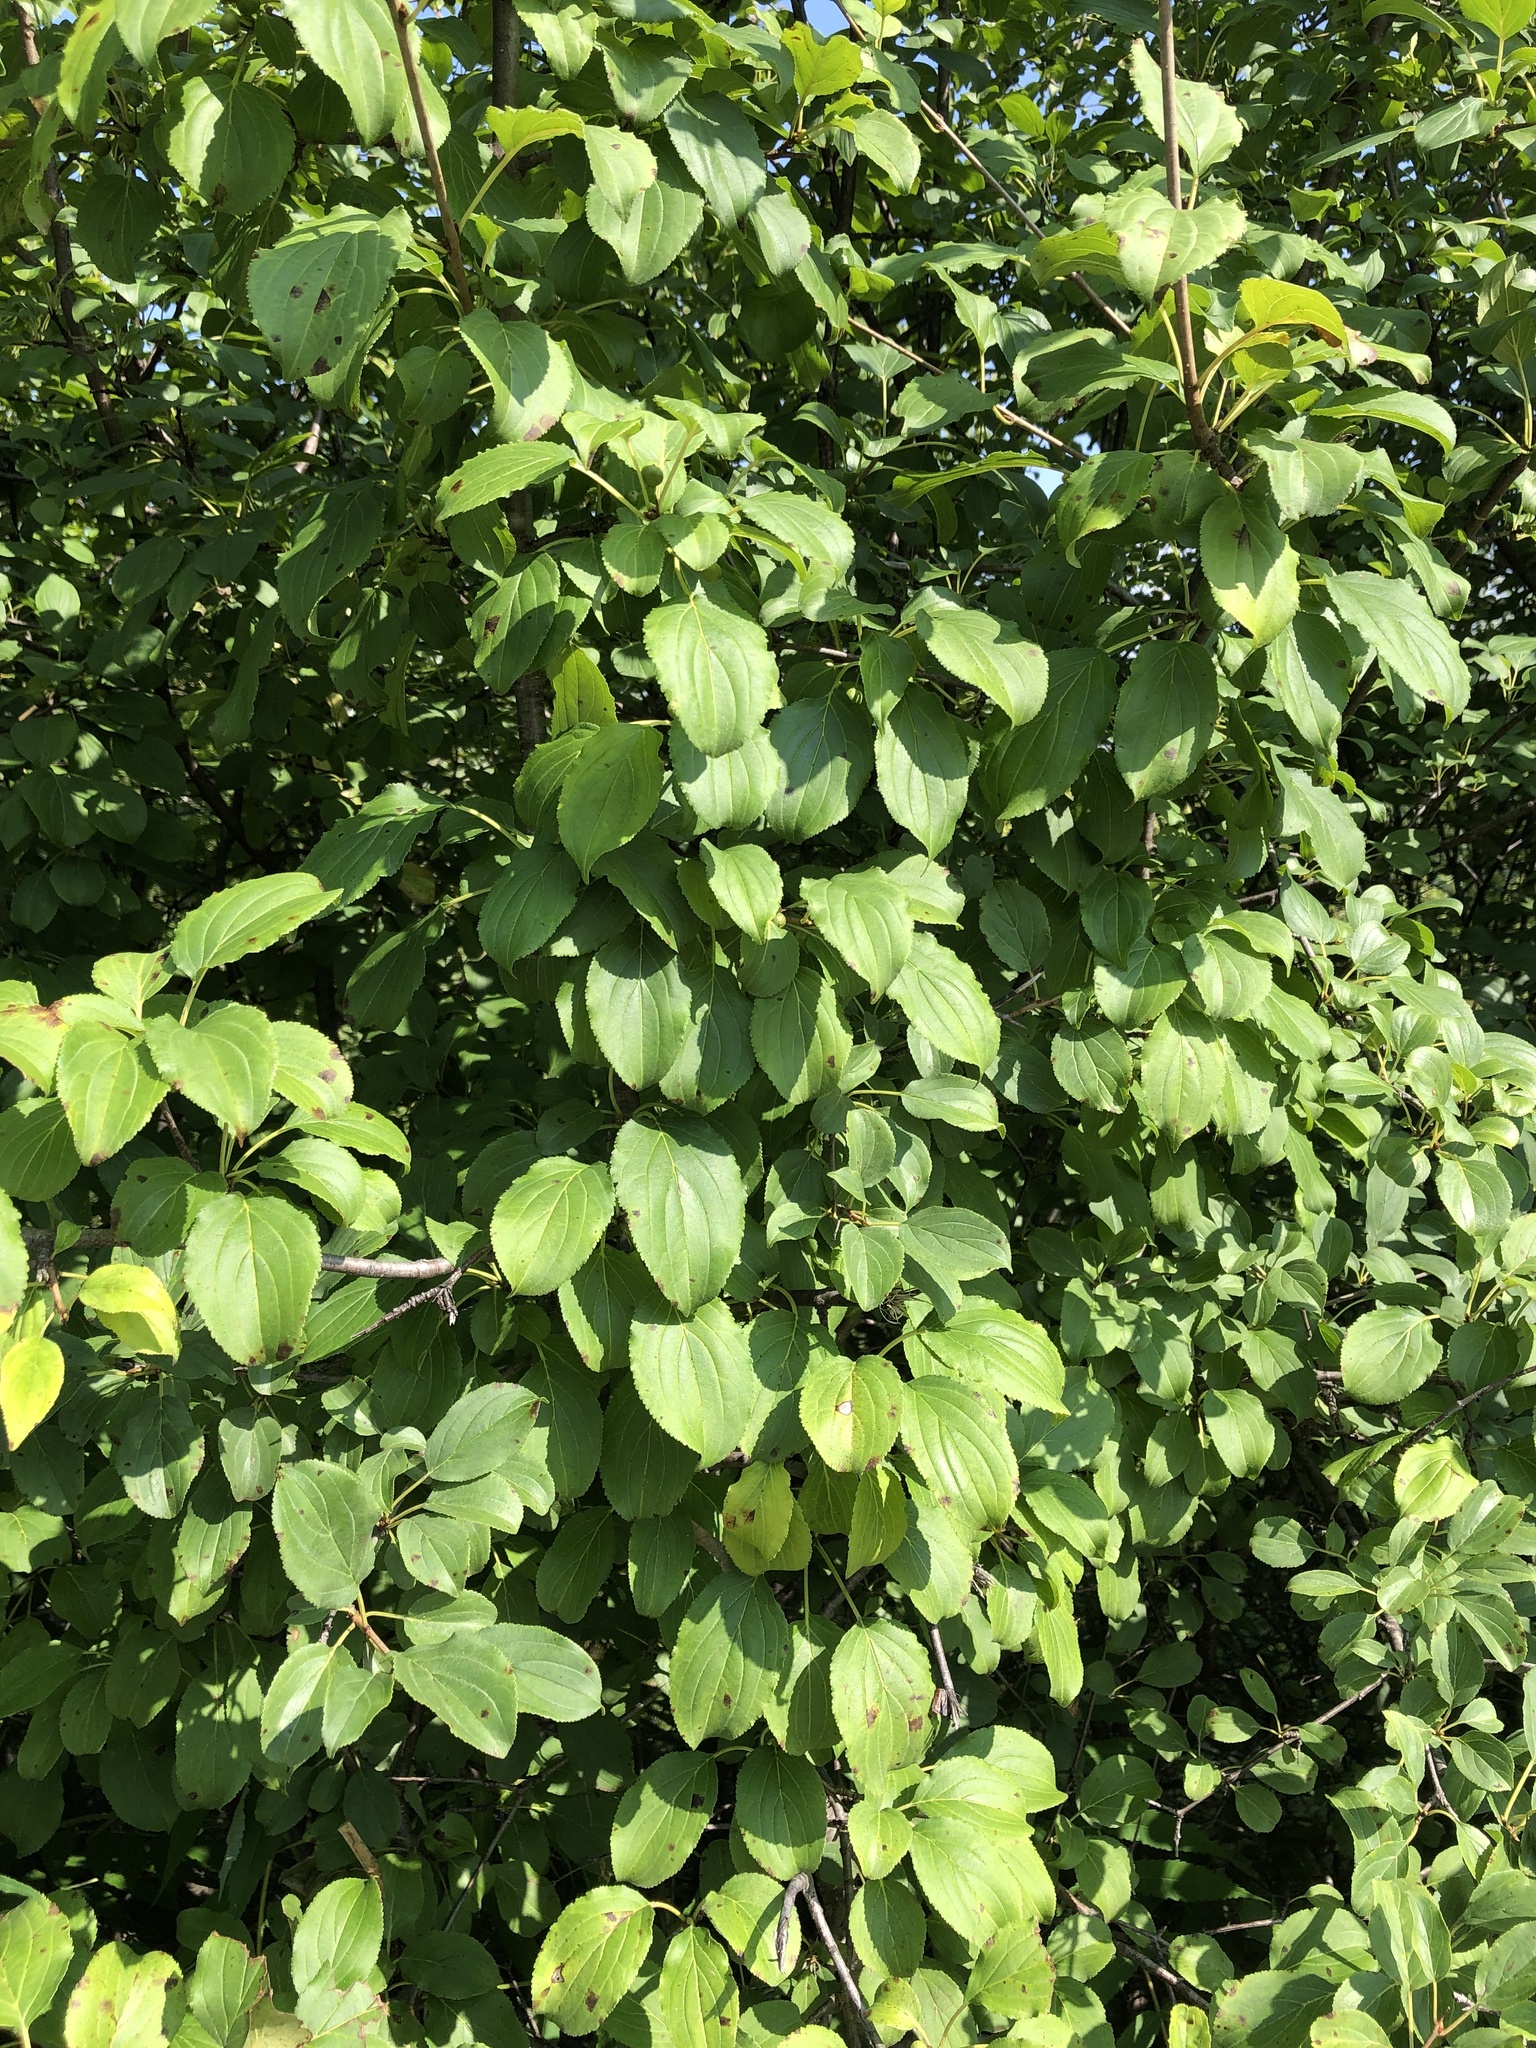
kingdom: Plantae
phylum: Tracheophyta
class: Magnoliopsida
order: Rosales
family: Rhamnaceae
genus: Rhamnus
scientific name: Rhamnus cathartica
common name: Common buckthorn
